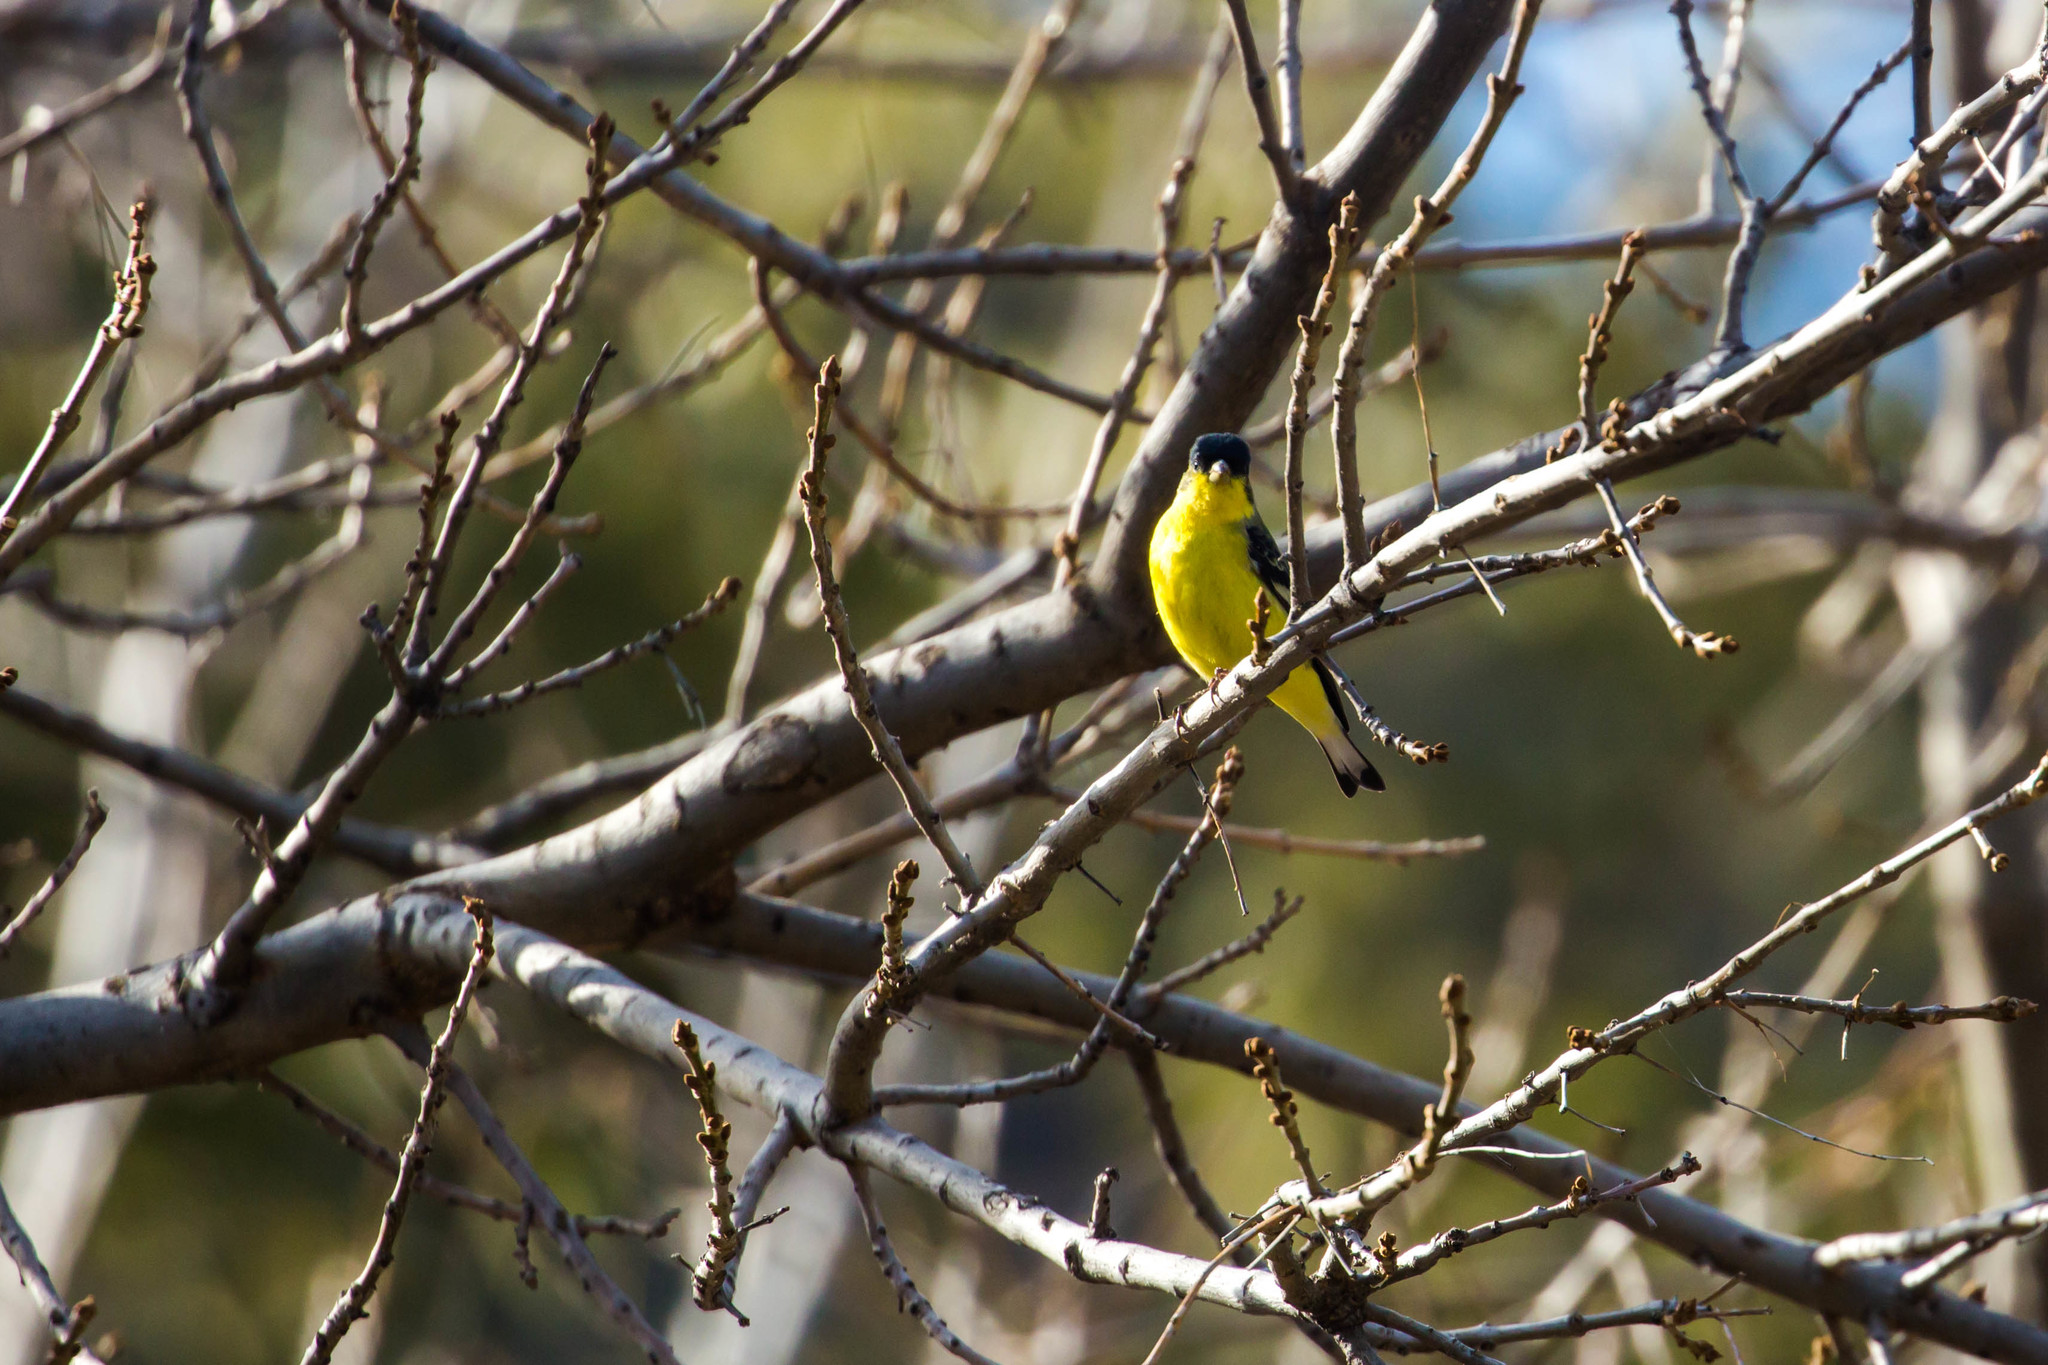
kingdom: Animalia
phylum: Chordata
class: Aves
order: Passeriformes
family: Fringillidae
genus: Spinus
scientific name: Spinus psaltria
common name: Lesser goldfinch
